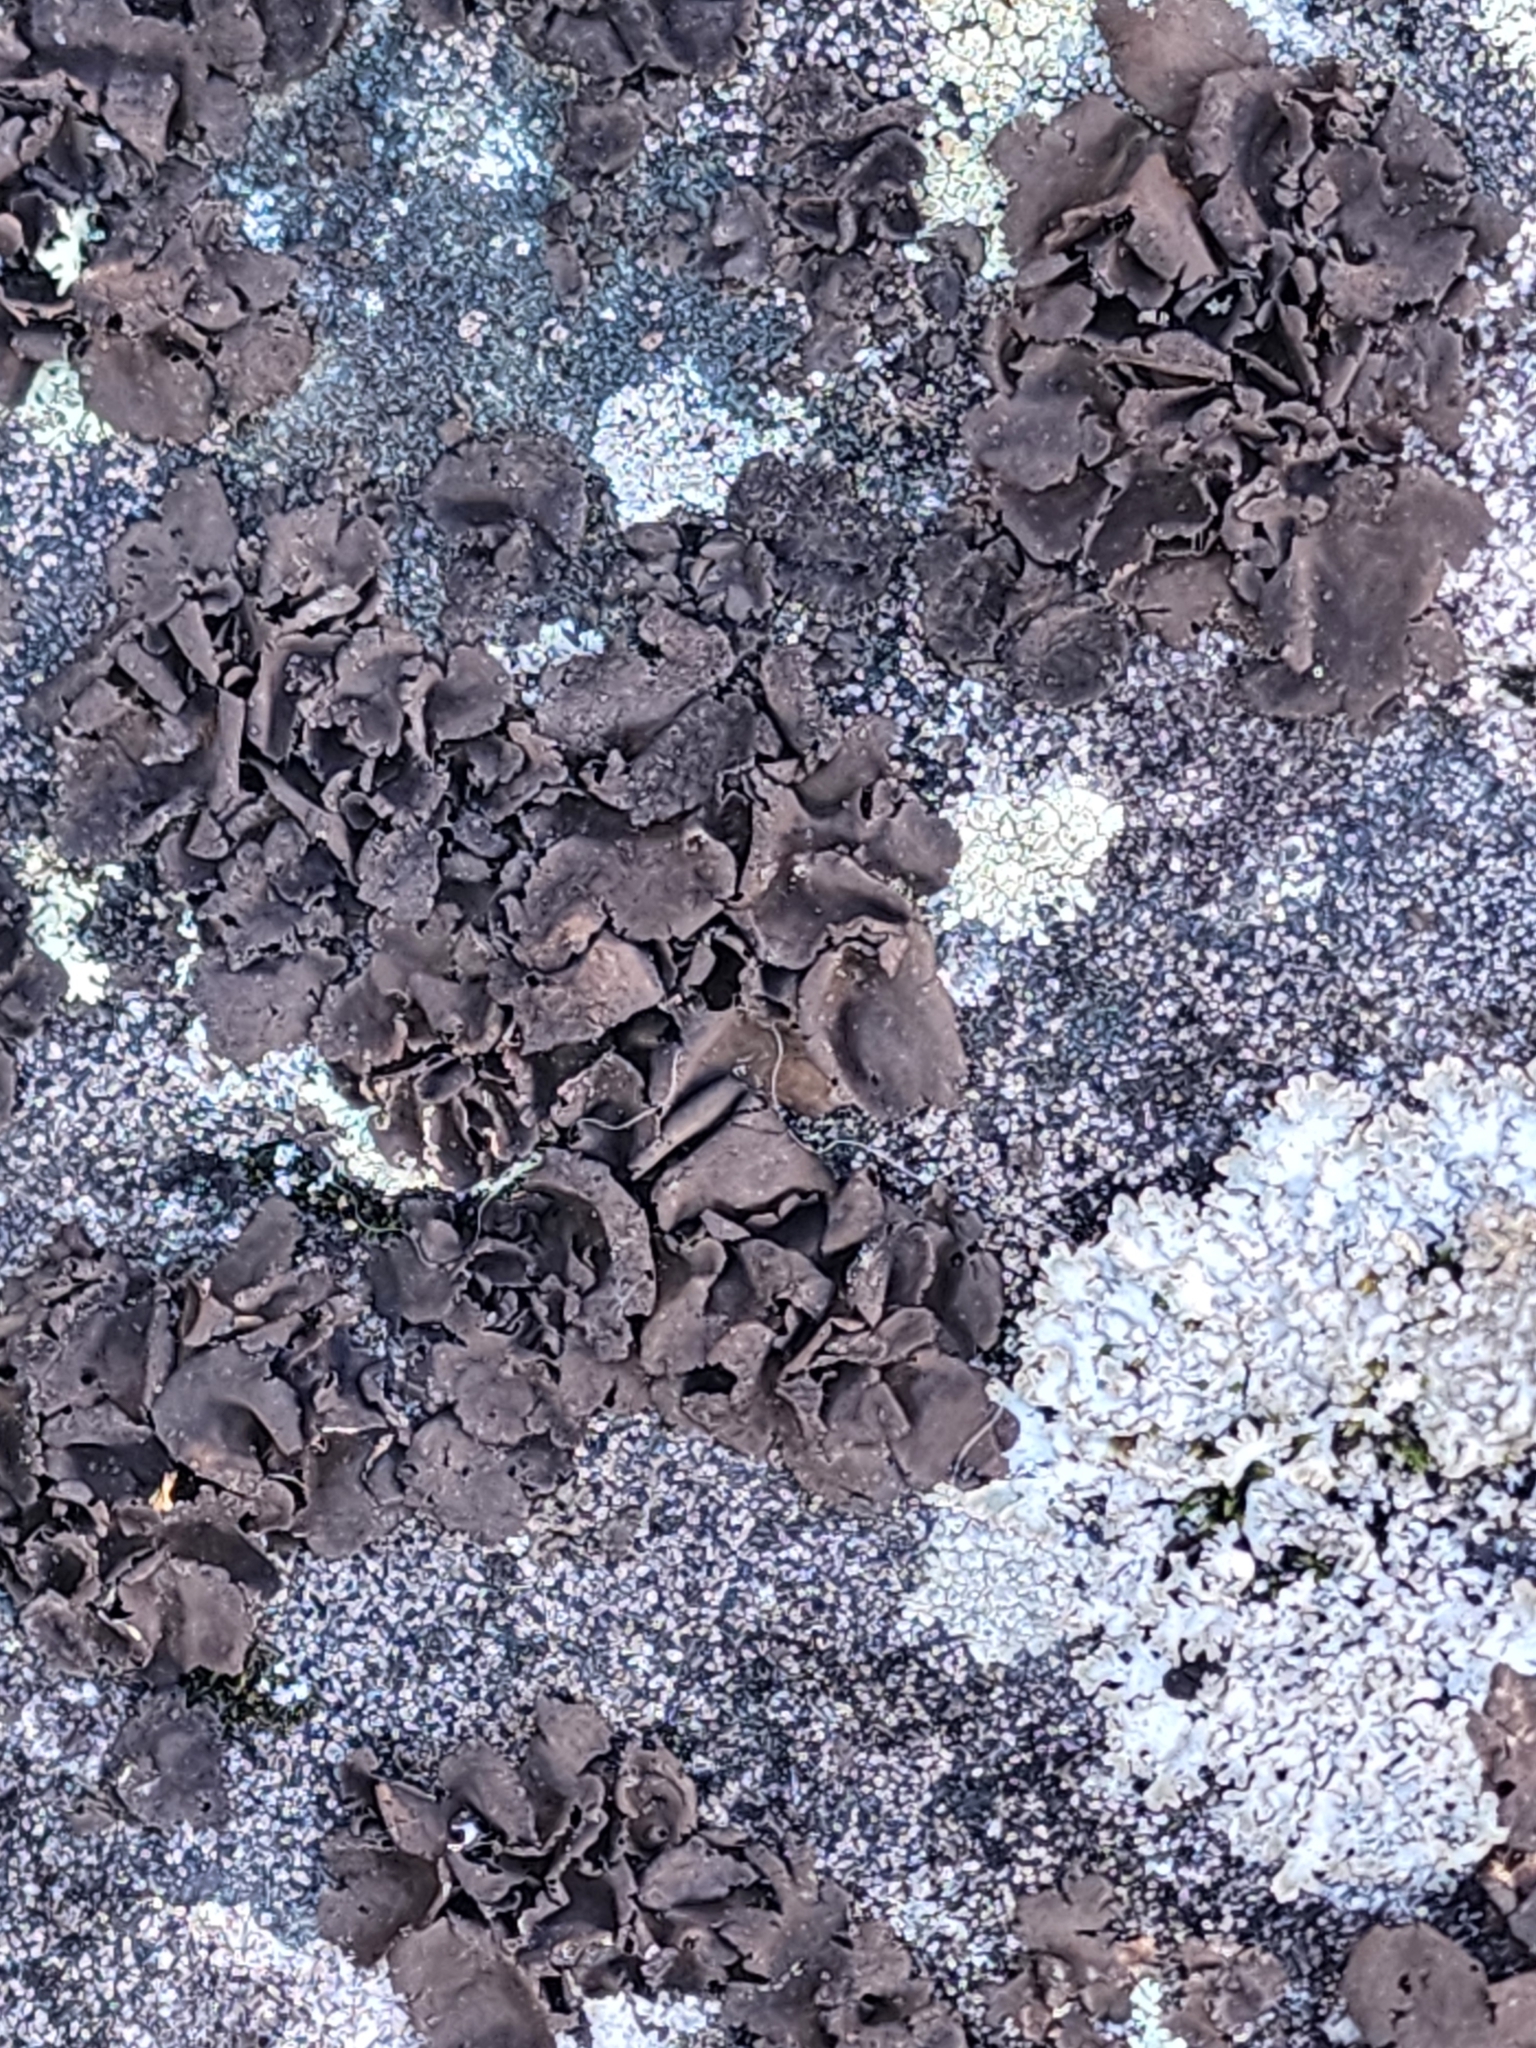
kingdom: Fungi
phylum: Ascomycota
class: Lecanoromycetes
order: Umbilicariales
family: Umbilicariaceae
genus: Umbilicaria
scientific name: Umbilicaria deusta
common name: Peppered rock tripe
